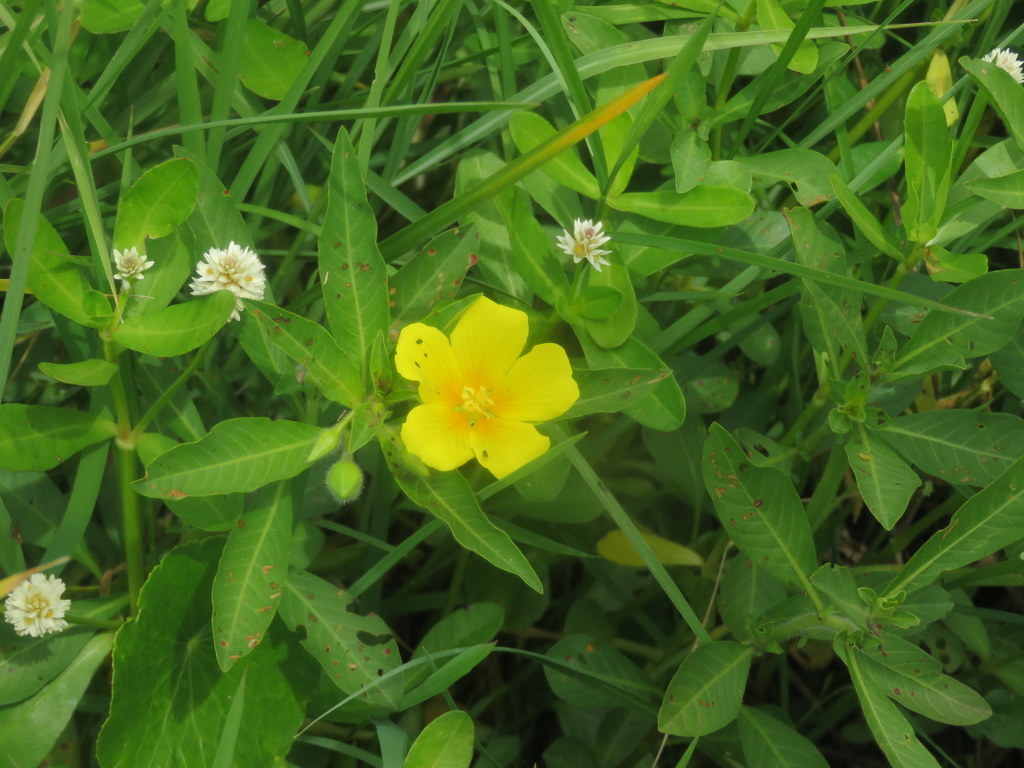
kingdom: Plantae
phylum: Tracheophyta
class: Magnoliopsida
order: Myrtales
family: Onagraceae
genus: Ludwigia
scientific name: Ludwigia peploides
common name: Floating primrose-willow
